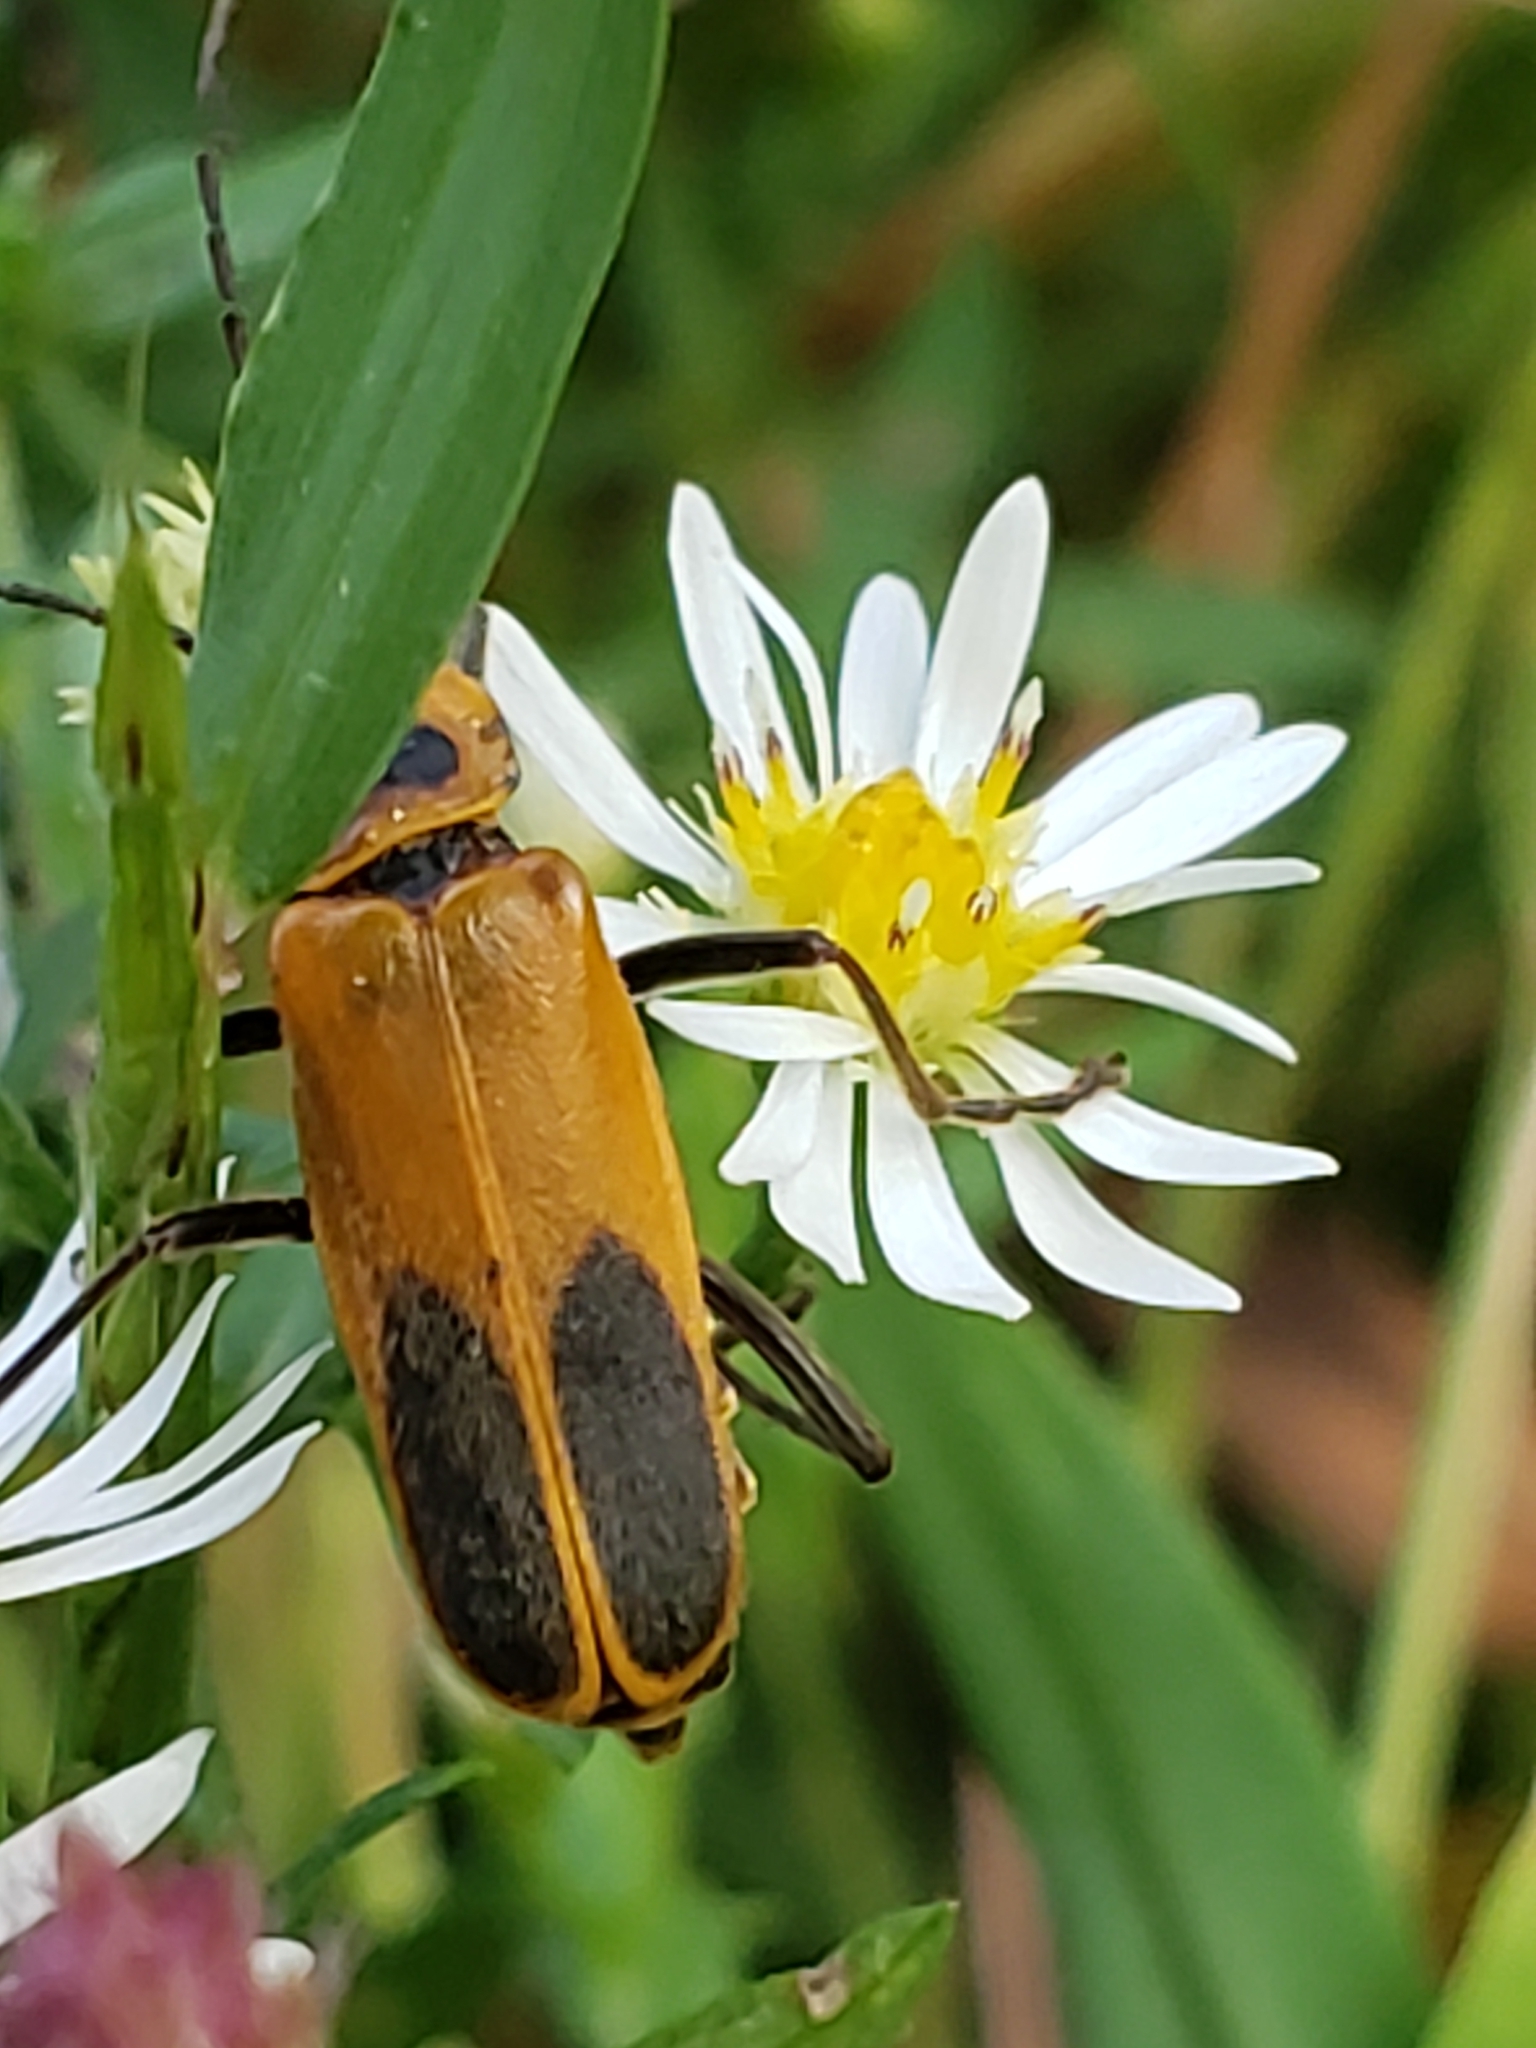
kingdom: Animalia
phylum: Arthropoda
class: Insecta
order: Coleoptera
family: Cantharidae
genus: Chauliognathus
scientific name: Chauliognathus pensylvanicus
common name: Goldenrod soldier beetle
